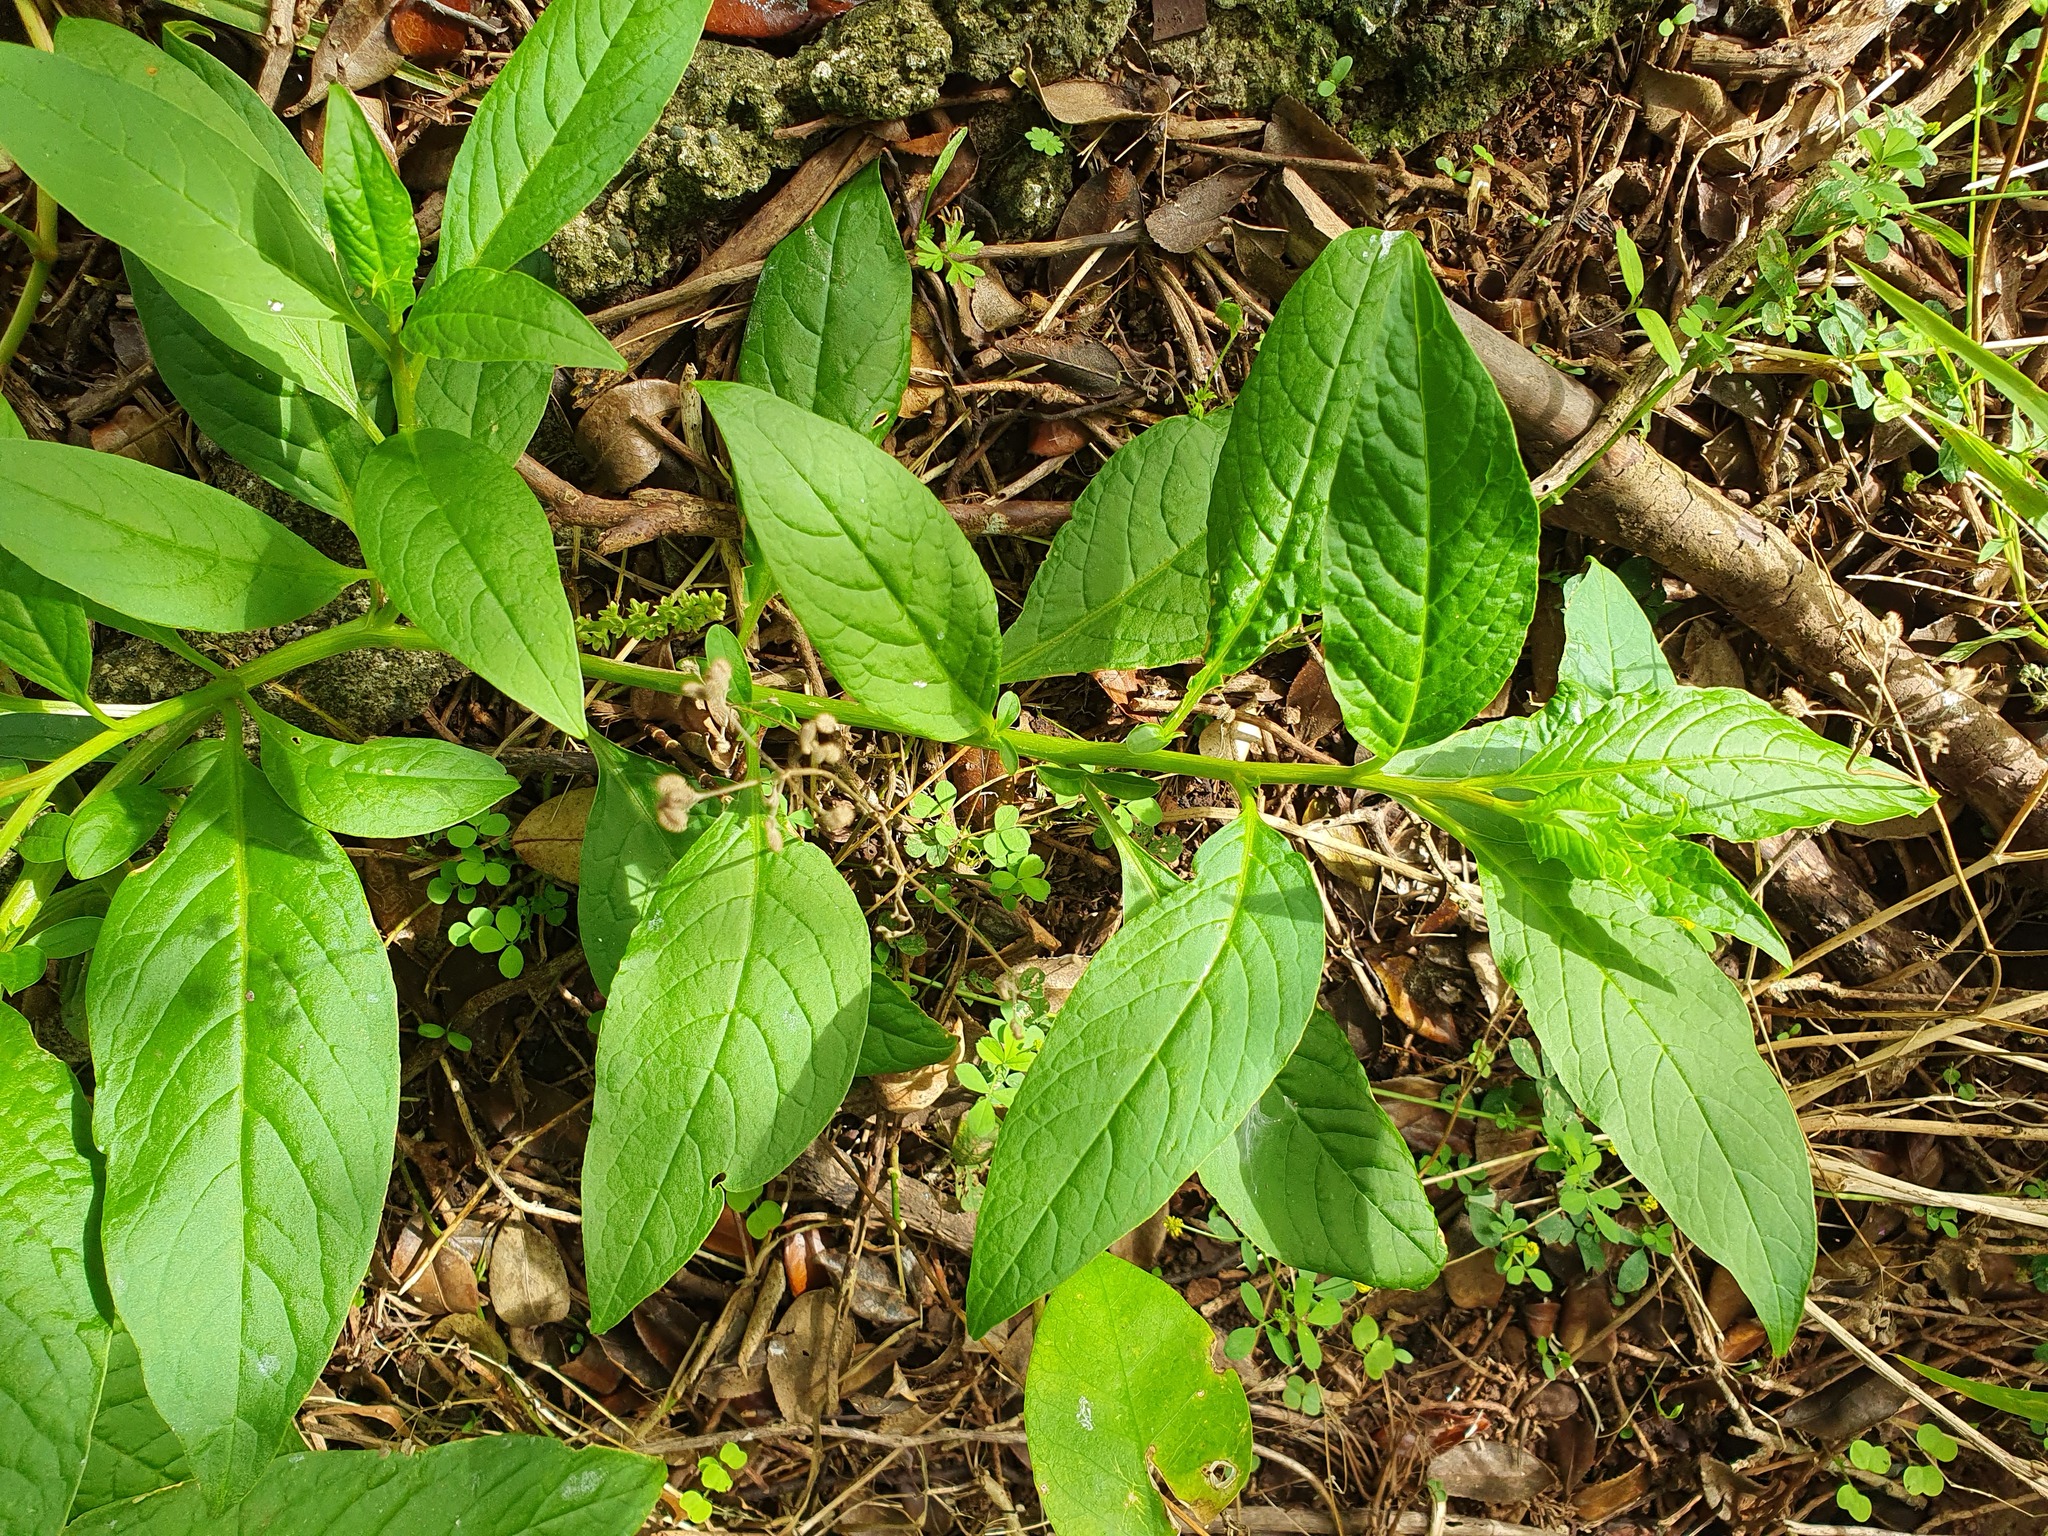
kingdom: Plantae
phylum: Tracheophyta
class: Magnoliopsida
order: Caryophyllales
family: Phytolaccaceae
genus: Phytolacca
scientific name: Phytolacca icosandra
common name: Button pokeweed
